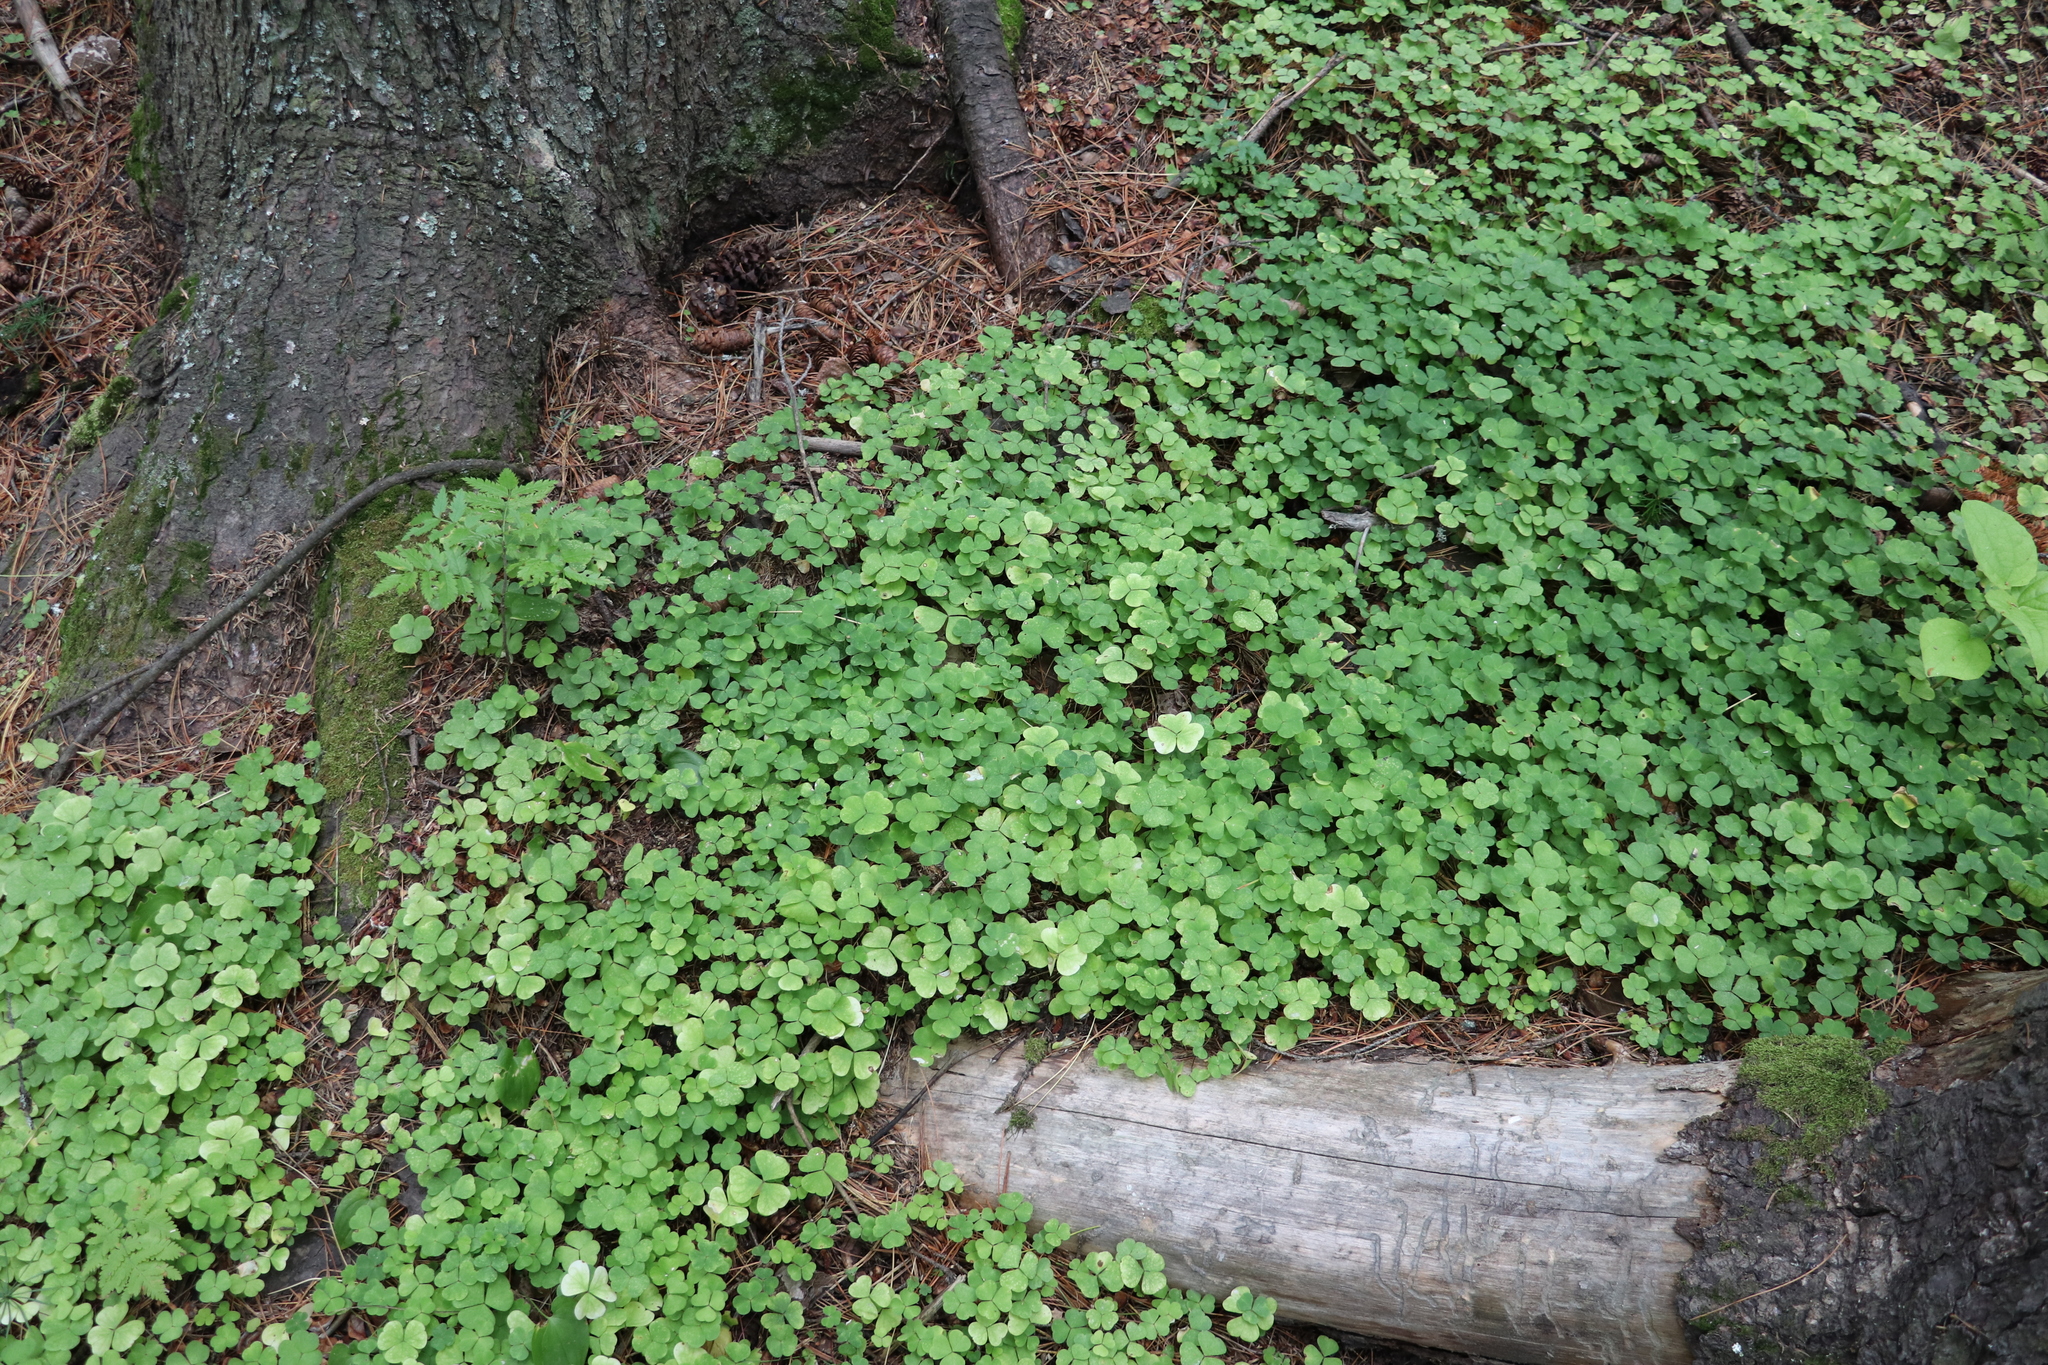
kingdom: Plantae
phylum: Tracheophyta
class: Magnoliopsida
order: Oxalidales
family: Oxalidaceae
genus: Oxalis
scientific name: Oxalis acetosella
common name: Wood-sorrel
